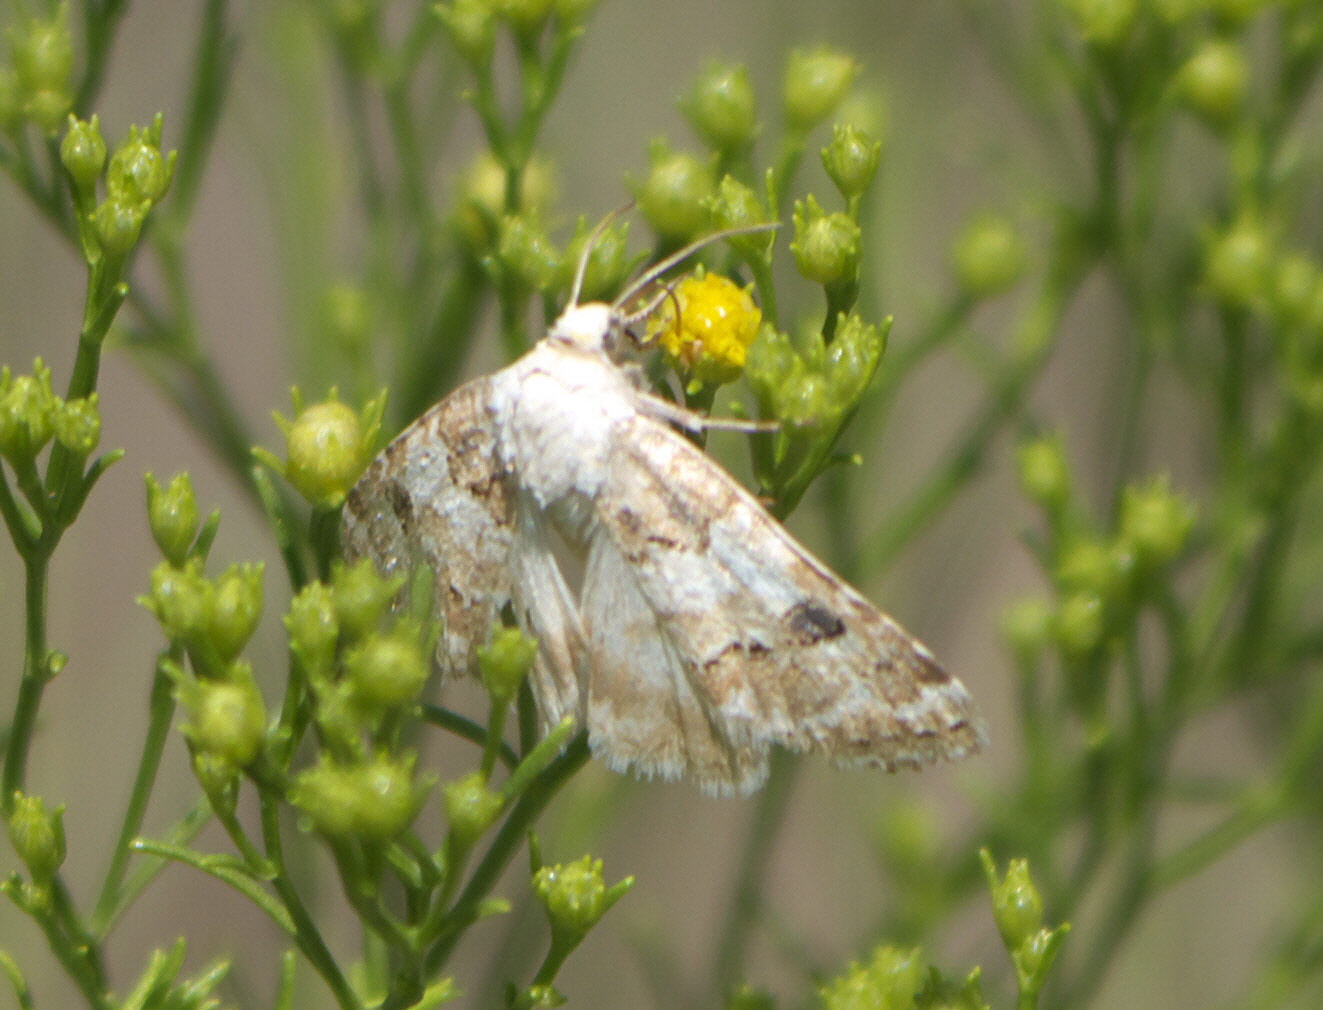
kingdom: Animalia
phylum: Arthropoda
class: Insecta
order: Lepidoptera
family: Noctuidae
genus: Schinia
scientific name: Schinia tertia
